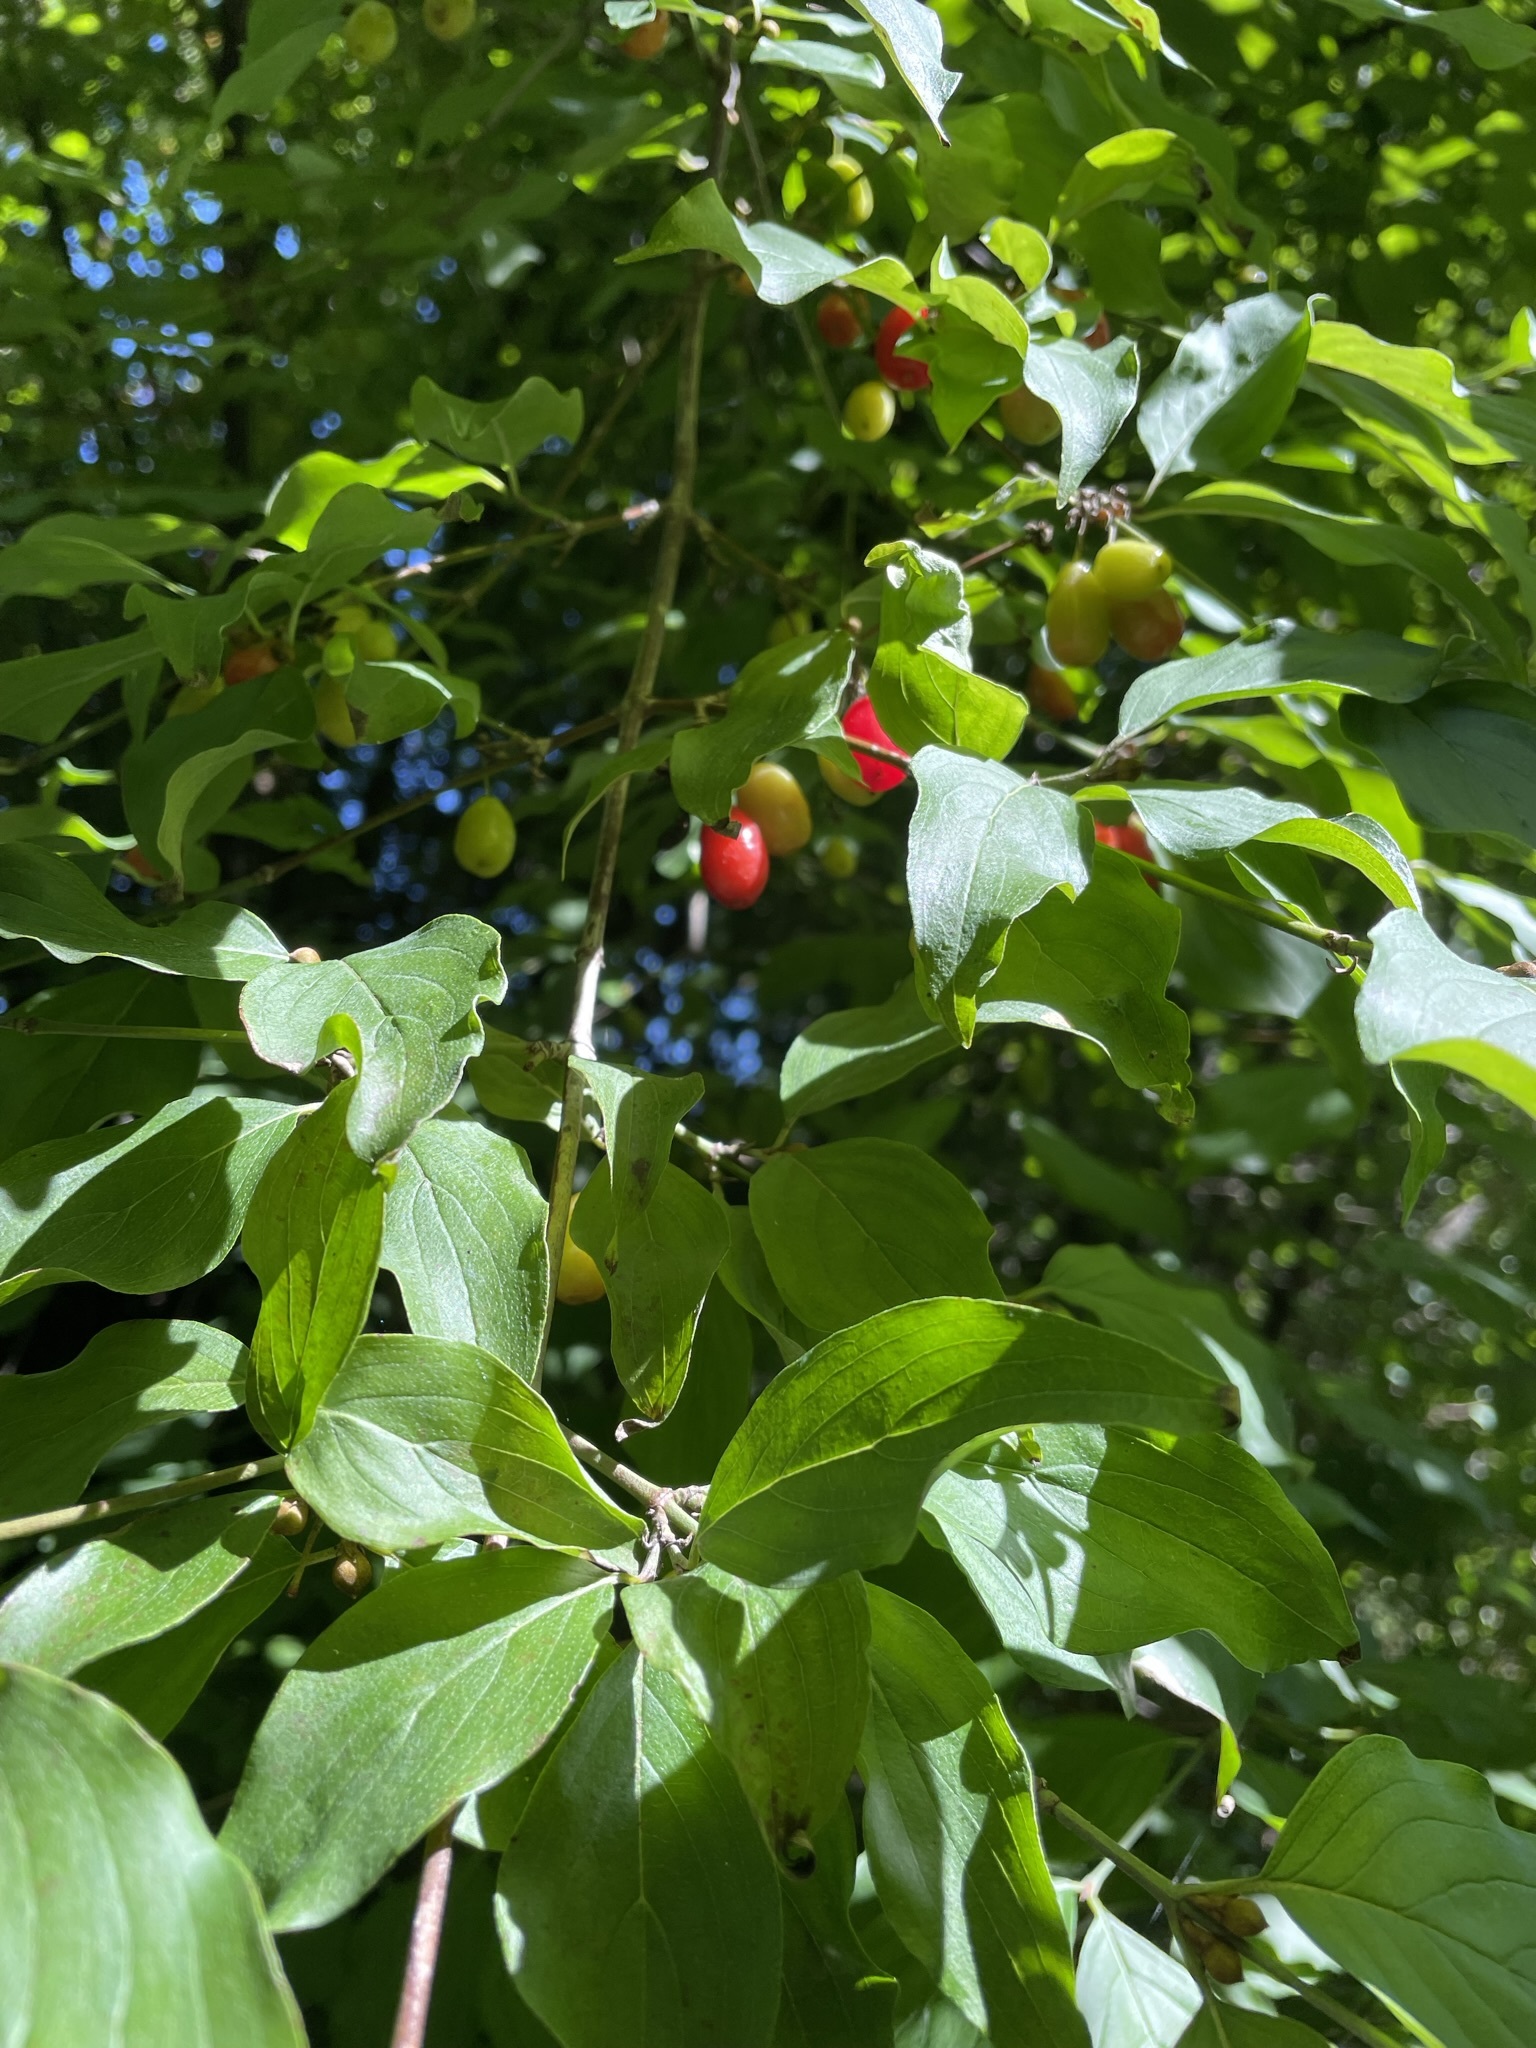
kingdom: Plantae
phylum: Tracheophyta
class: Magnoliopsida
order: Cornales
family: Cornaceae
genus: Cornus
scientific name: Cornus mas
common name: Cornelian-cherry
